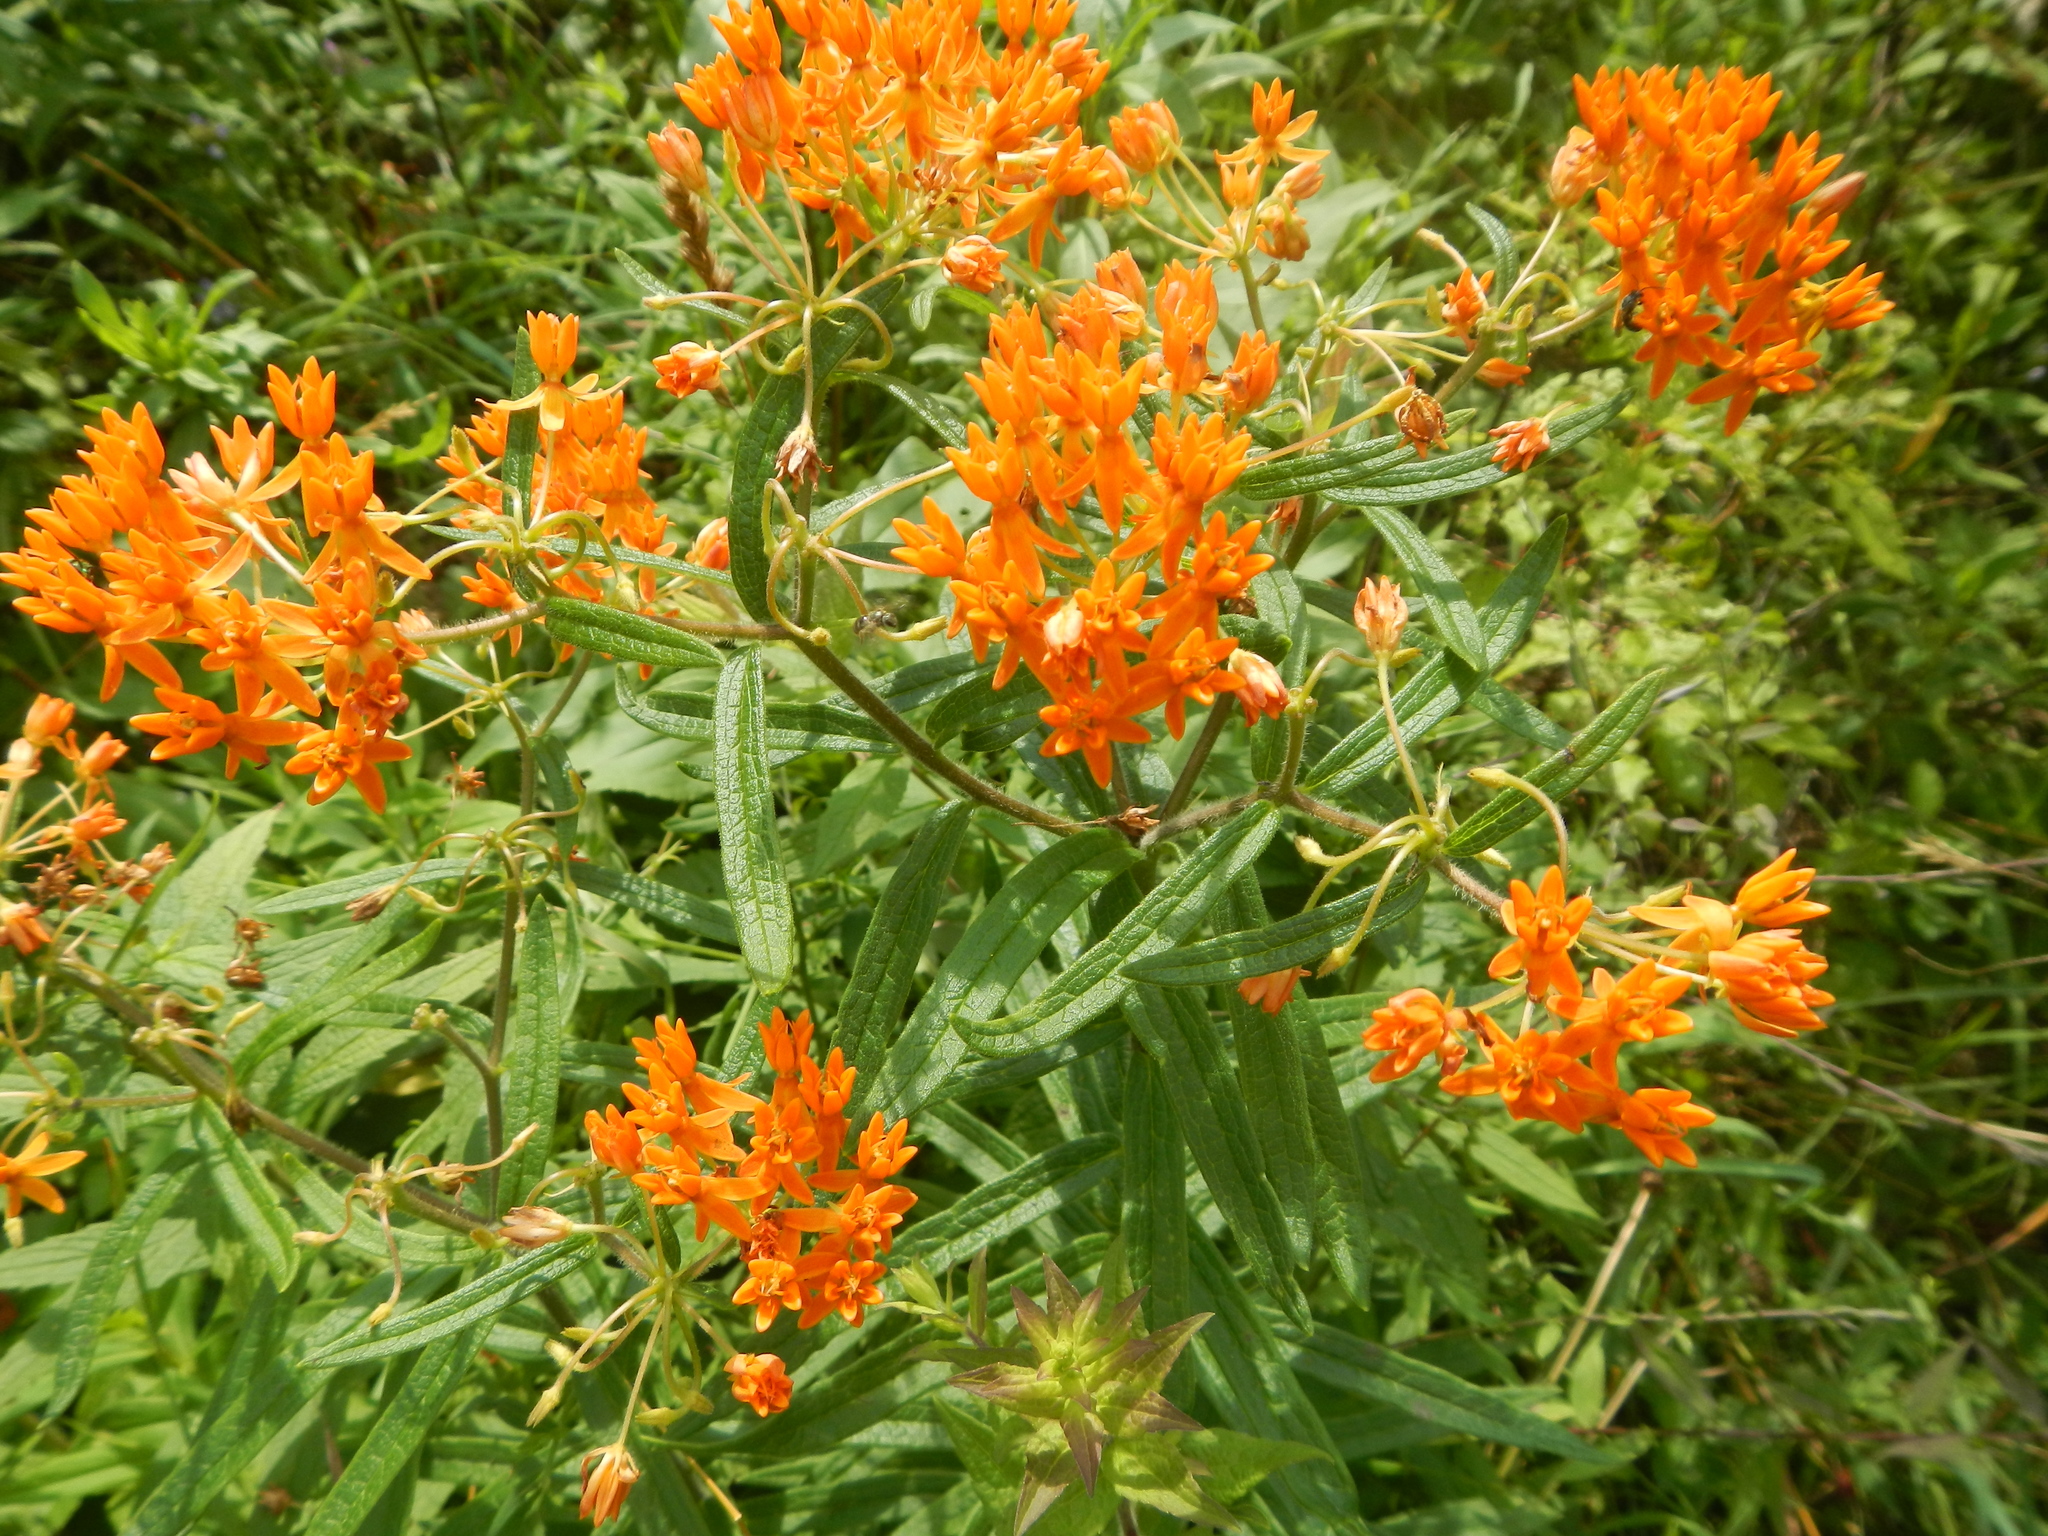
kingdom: Plantae
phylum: Tracheophyta
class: Magnoliopsida
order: Gentianales
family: Apocynaceae
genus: Asclepias
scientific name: Asclepias tuberosa
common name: Butterfly milkweed
